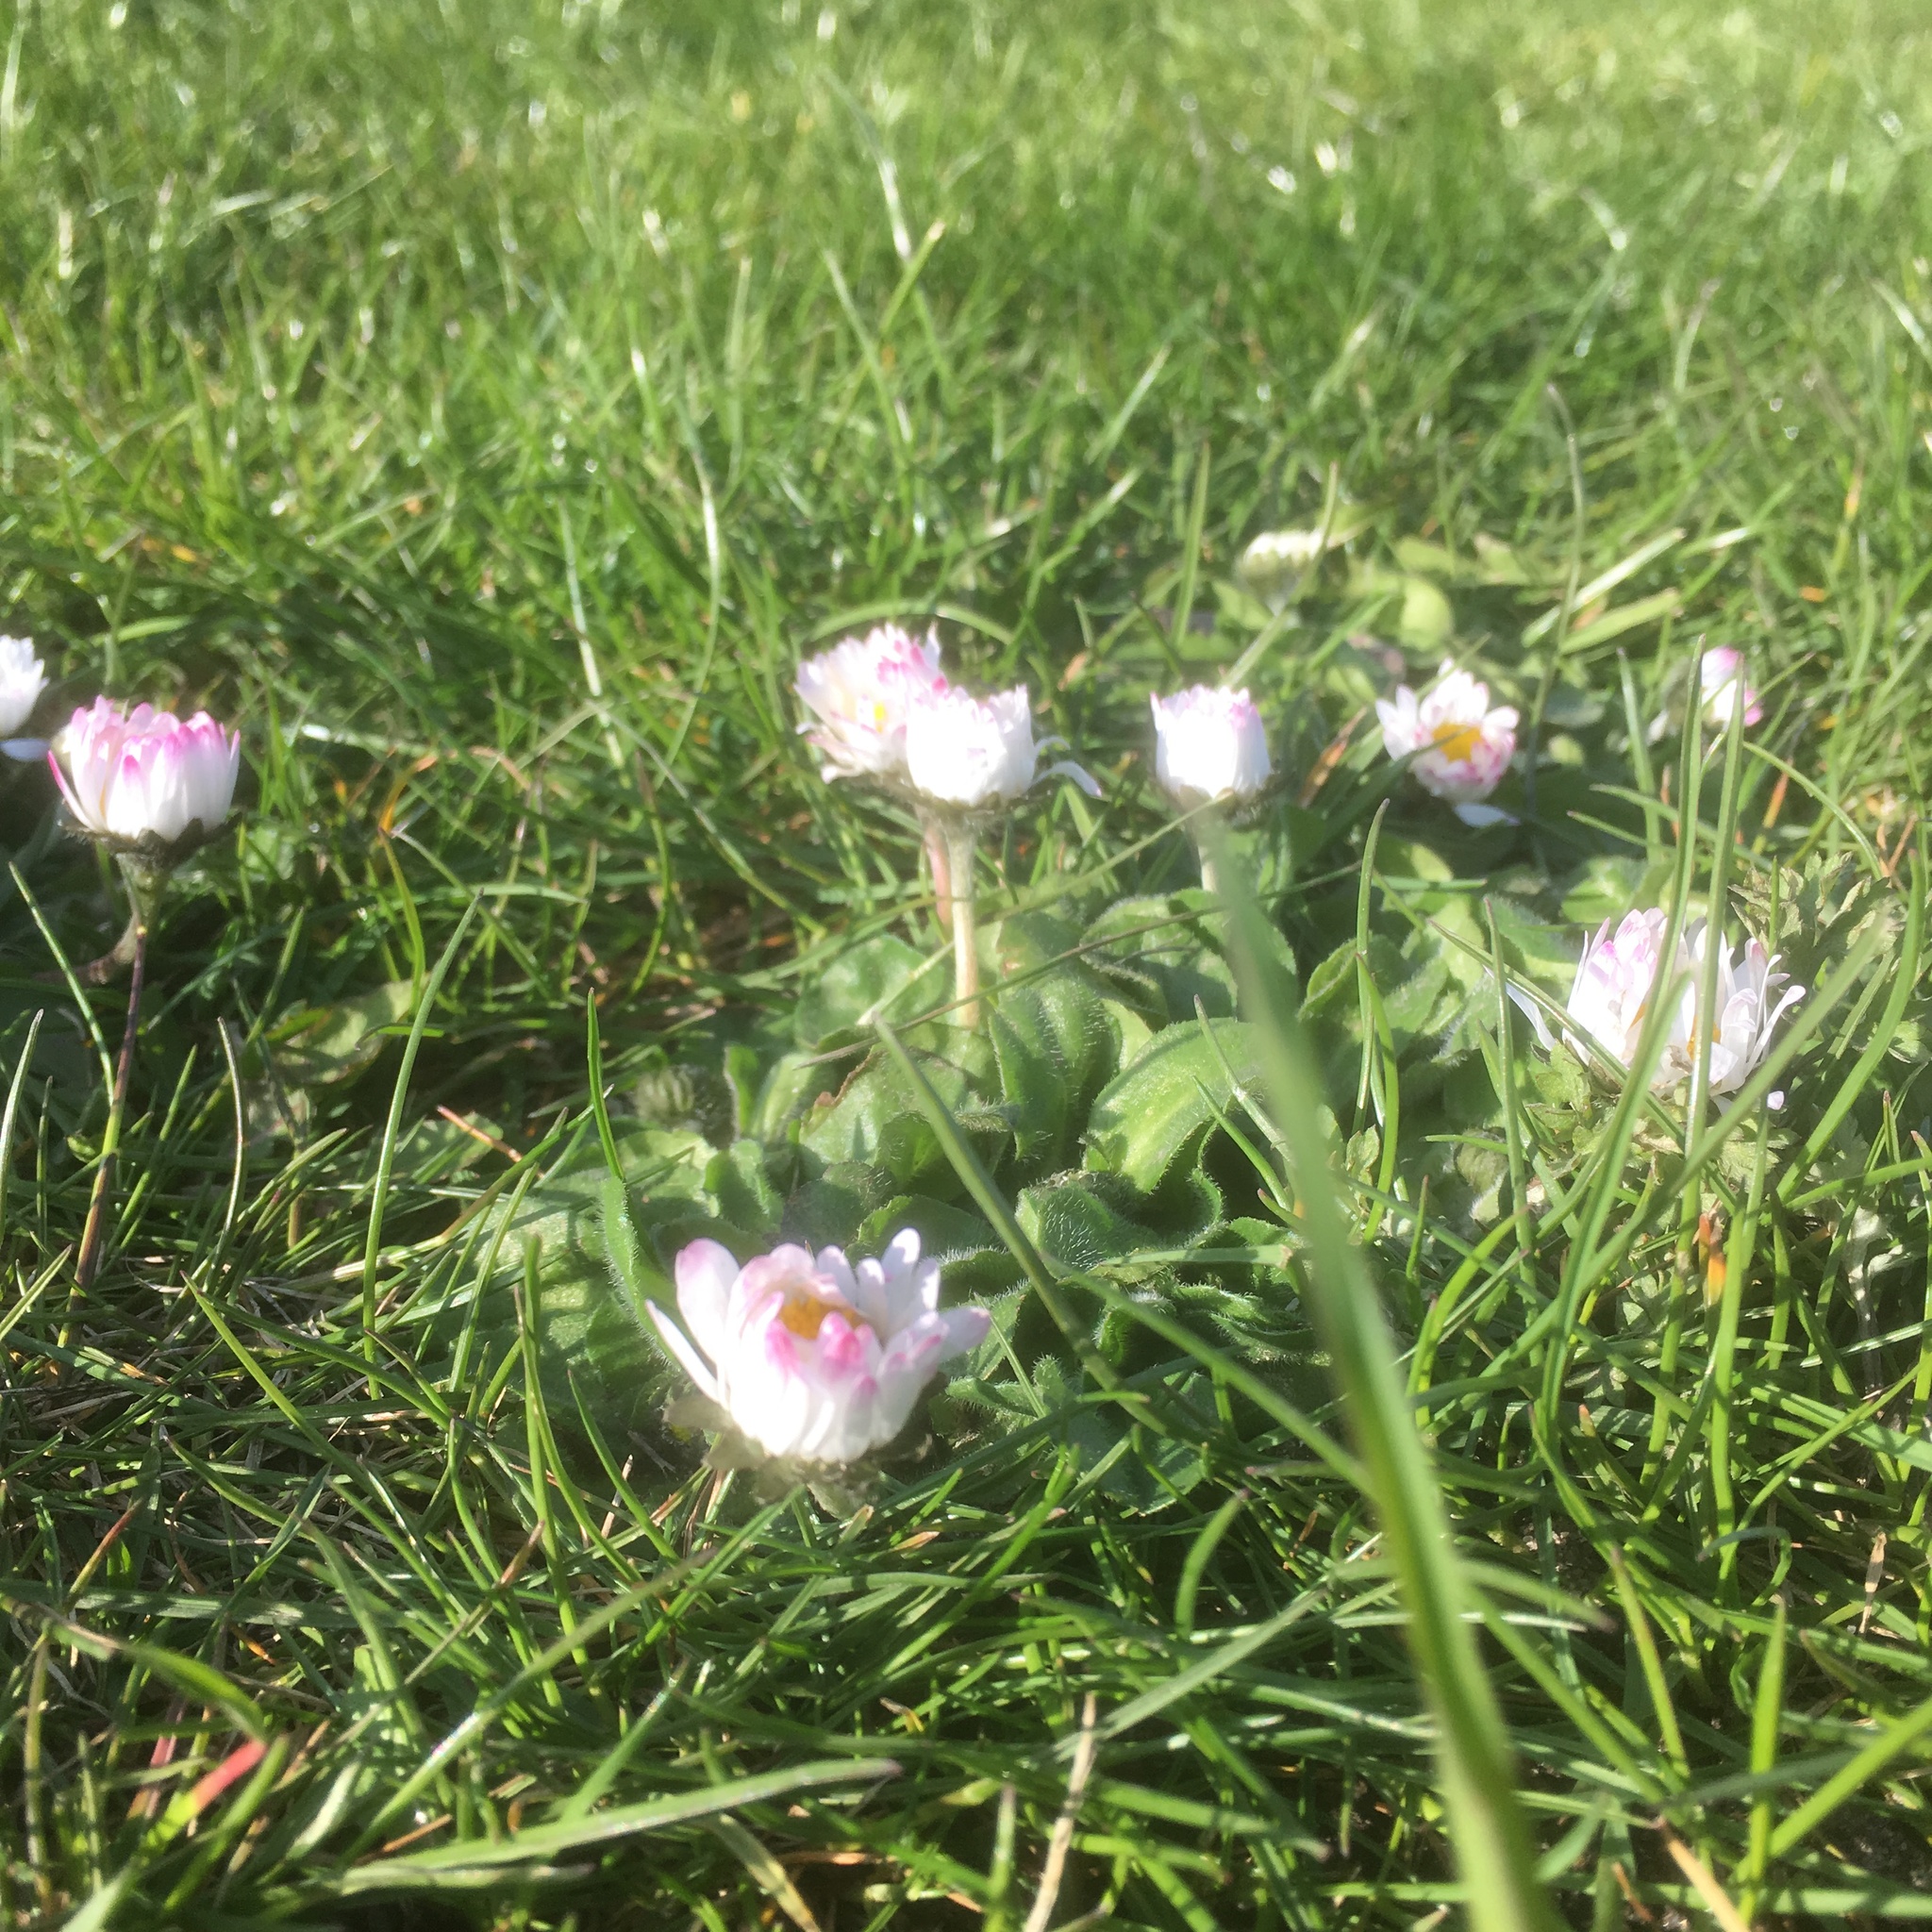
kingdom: Plantae
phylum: Tracheophyta
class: Magnoliopsida
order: Asterales
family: Asteraceae
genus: Bellis
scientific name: Bellis perennis
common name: Lawndaisy
